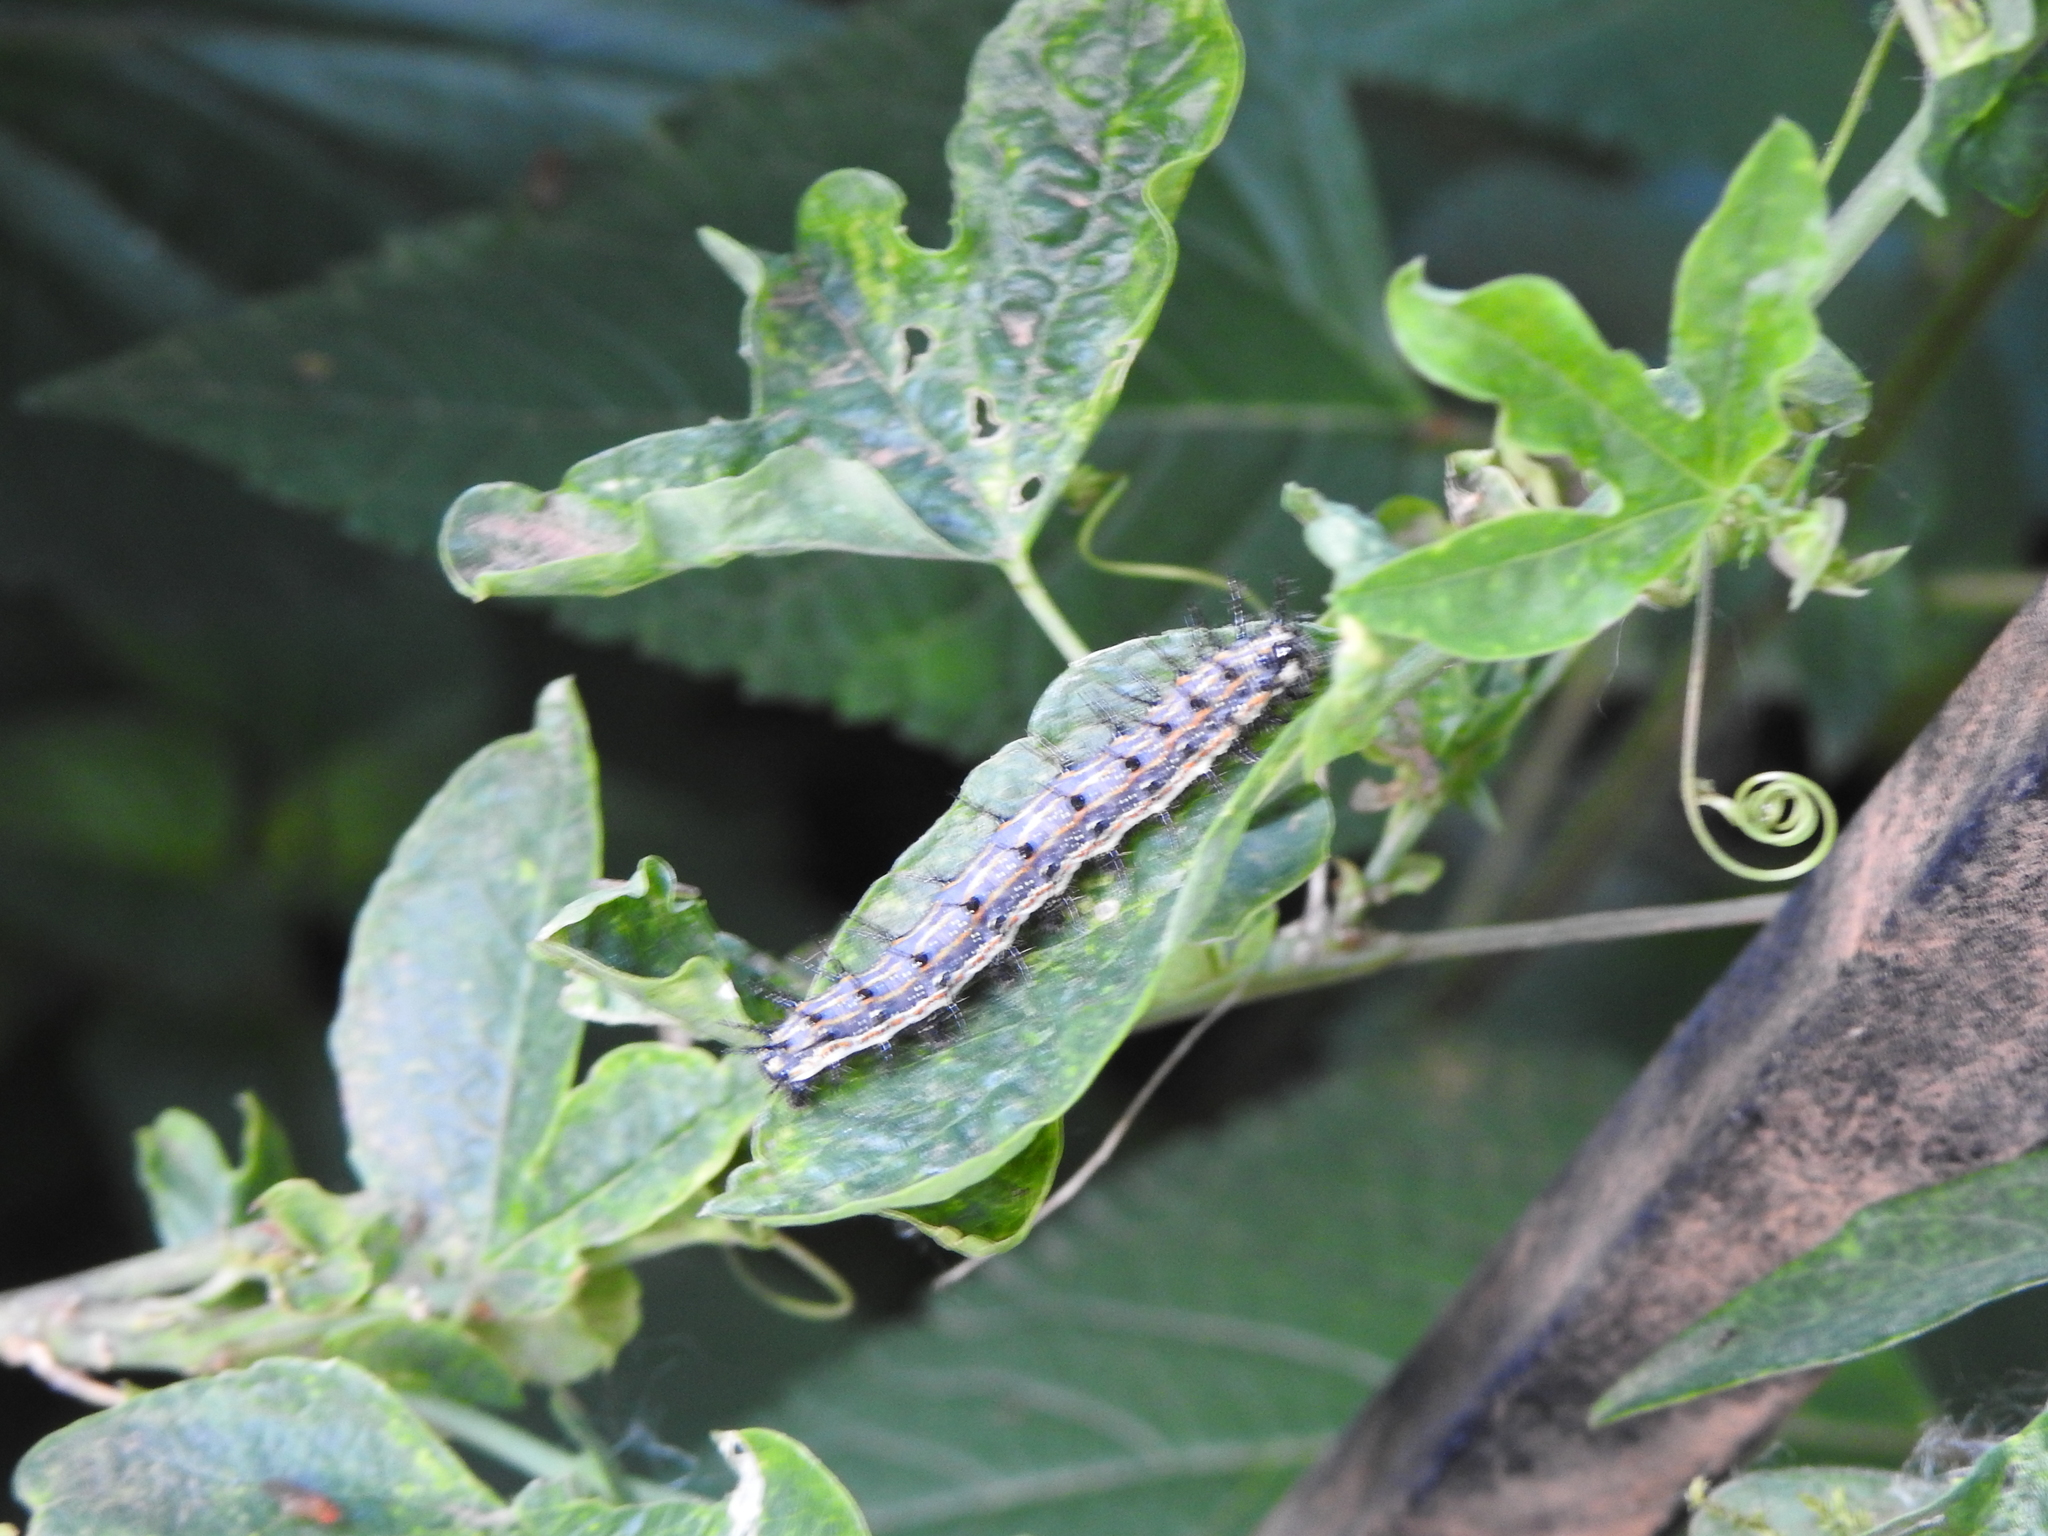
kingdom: Animalia
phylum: Arthropoda
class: Insecta
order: Lepidoptera
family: Nymphalidae
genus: Dione
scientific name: Dione vanillae
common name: Gulf fritillary
